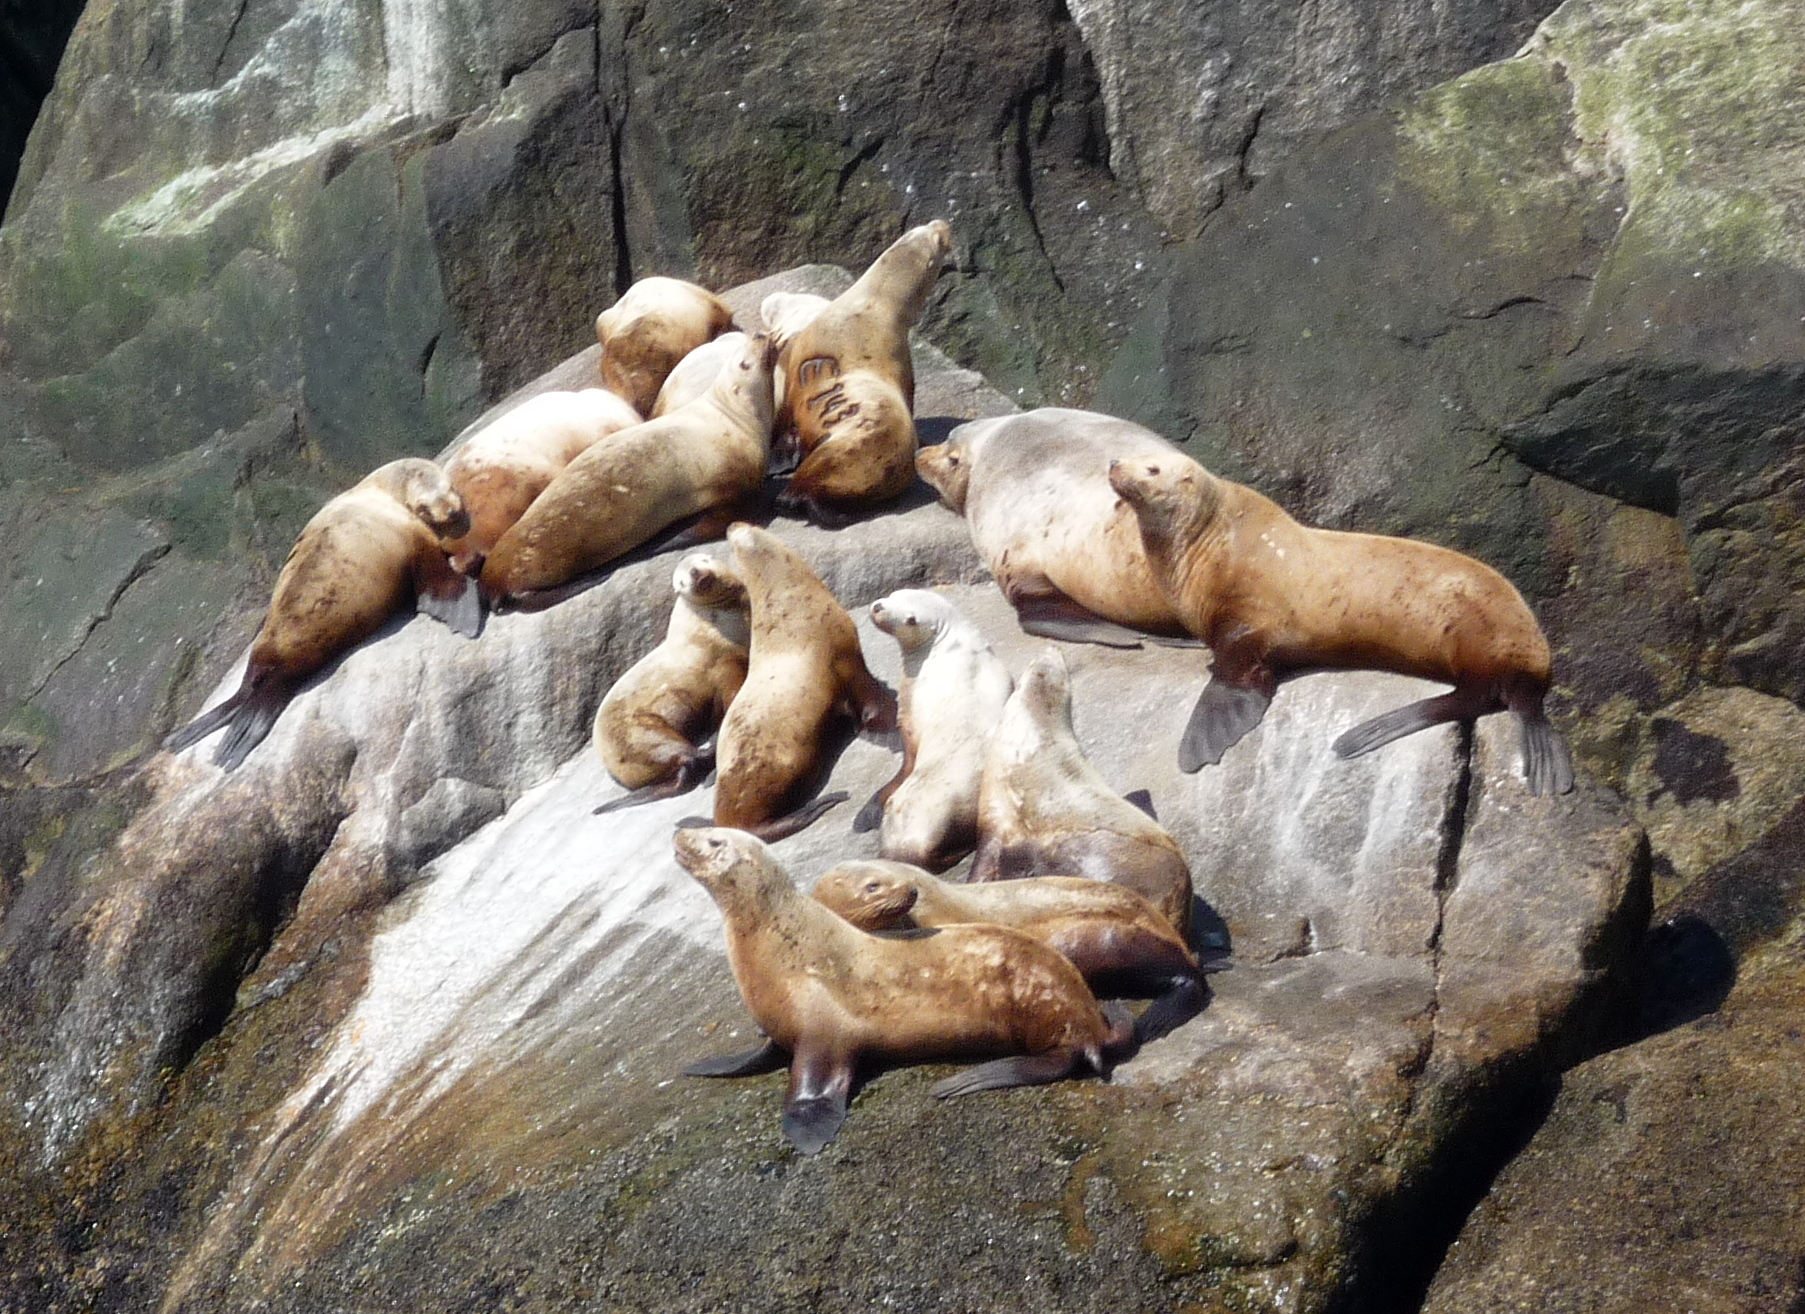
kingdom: Animalia
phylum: Chordata
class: Mammalia
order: Carnivora
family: Otariidae
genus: Eumetopias
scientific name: Eumetopias jubatus
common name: Steller sea lion
